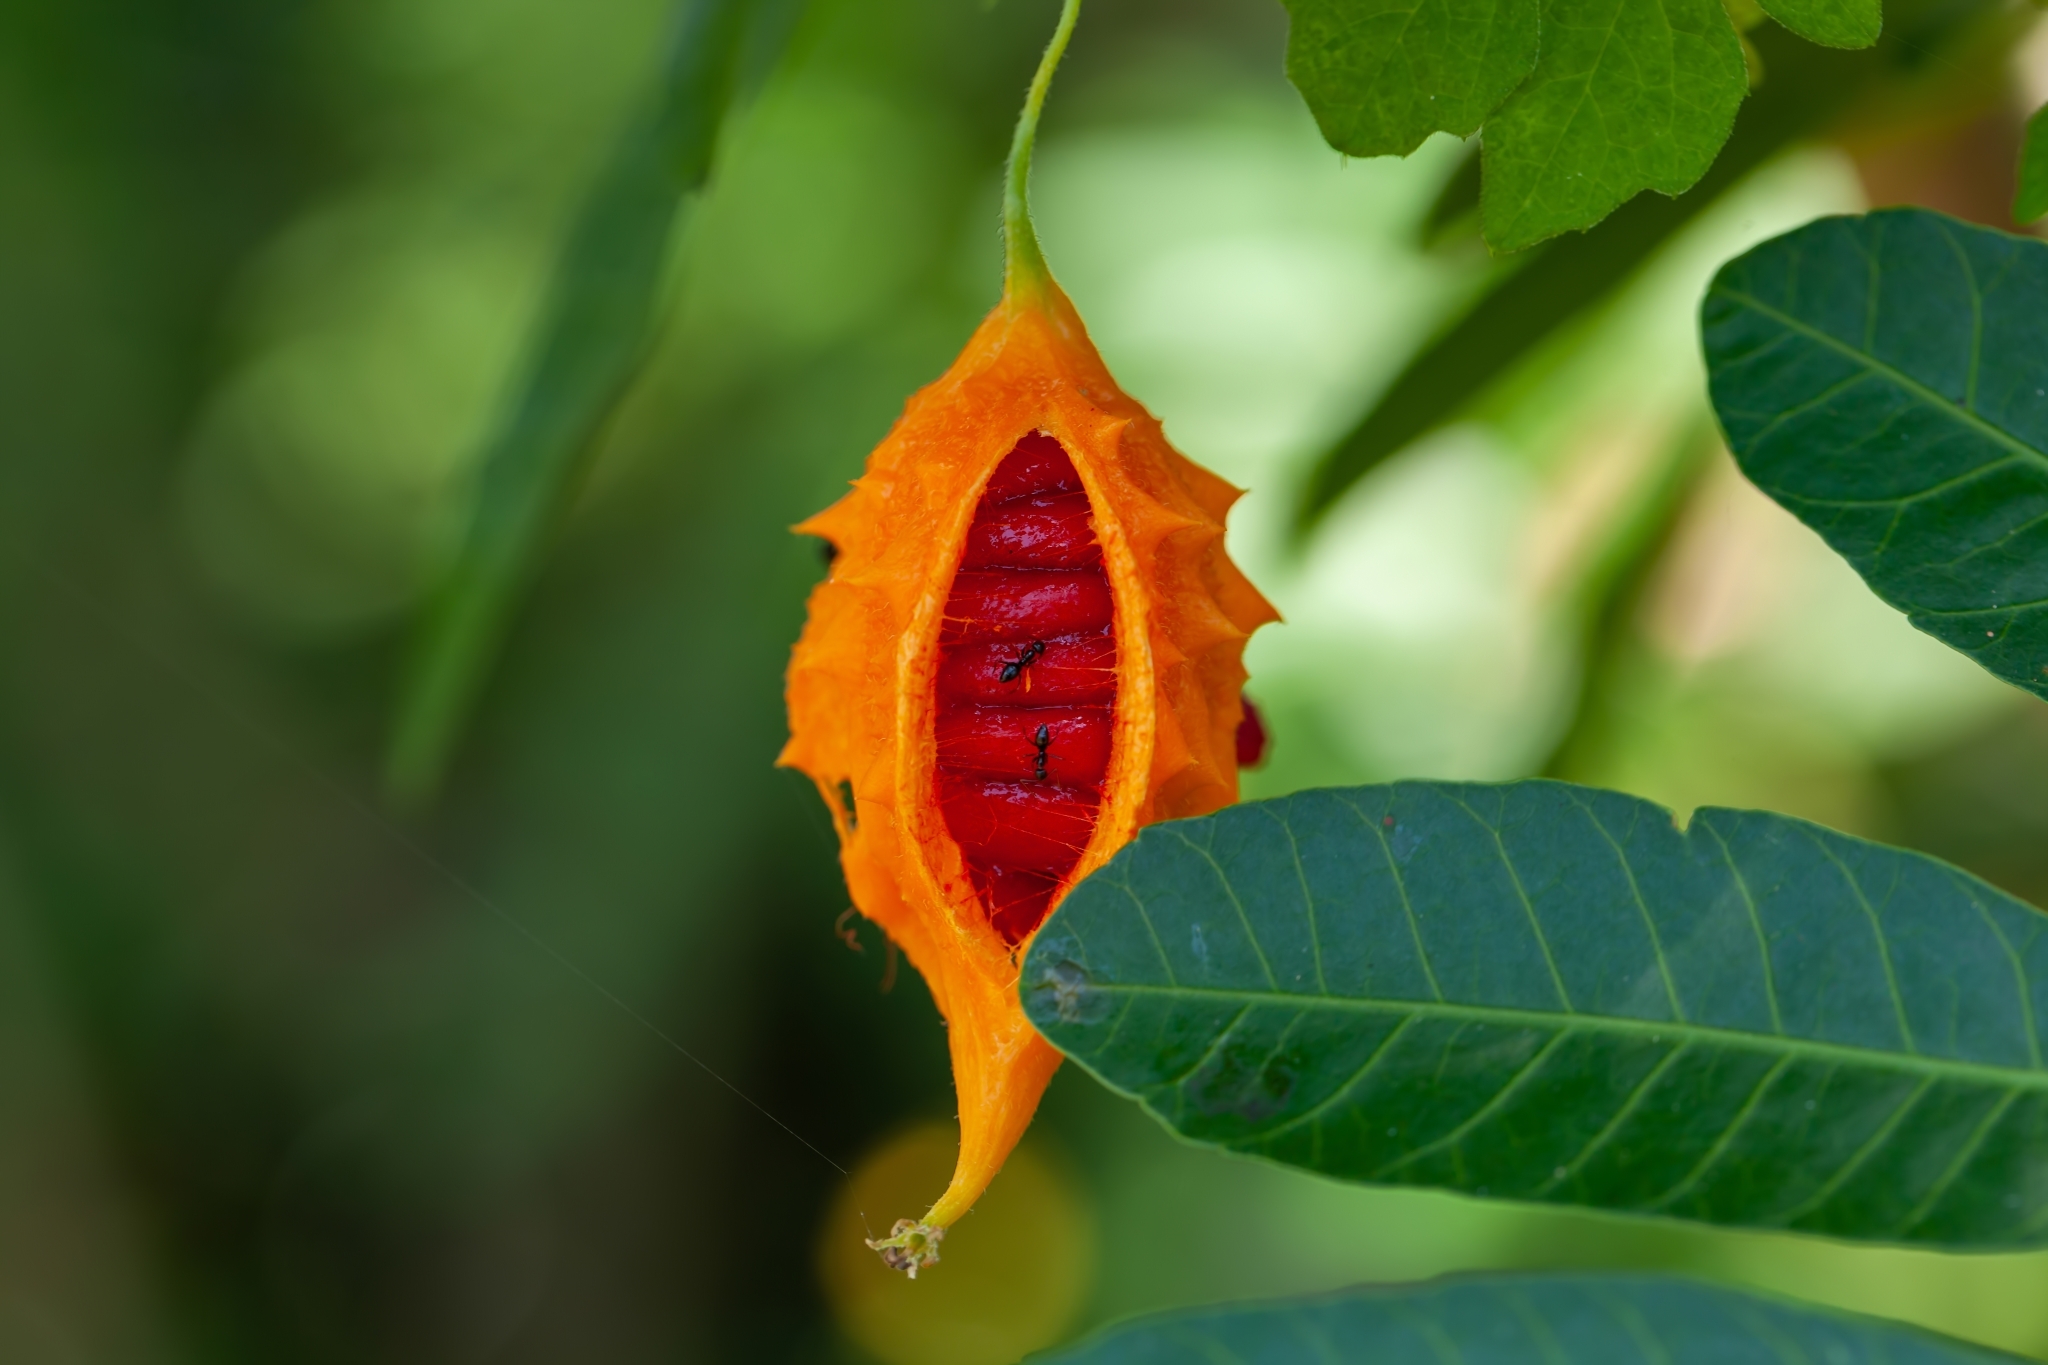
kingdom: Animalia
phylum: Arthropoda
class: Insecta
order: Hymenoptera
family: Formicidae
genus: Paratrechina
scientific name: Paratrechina bourbonica
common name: Ant
